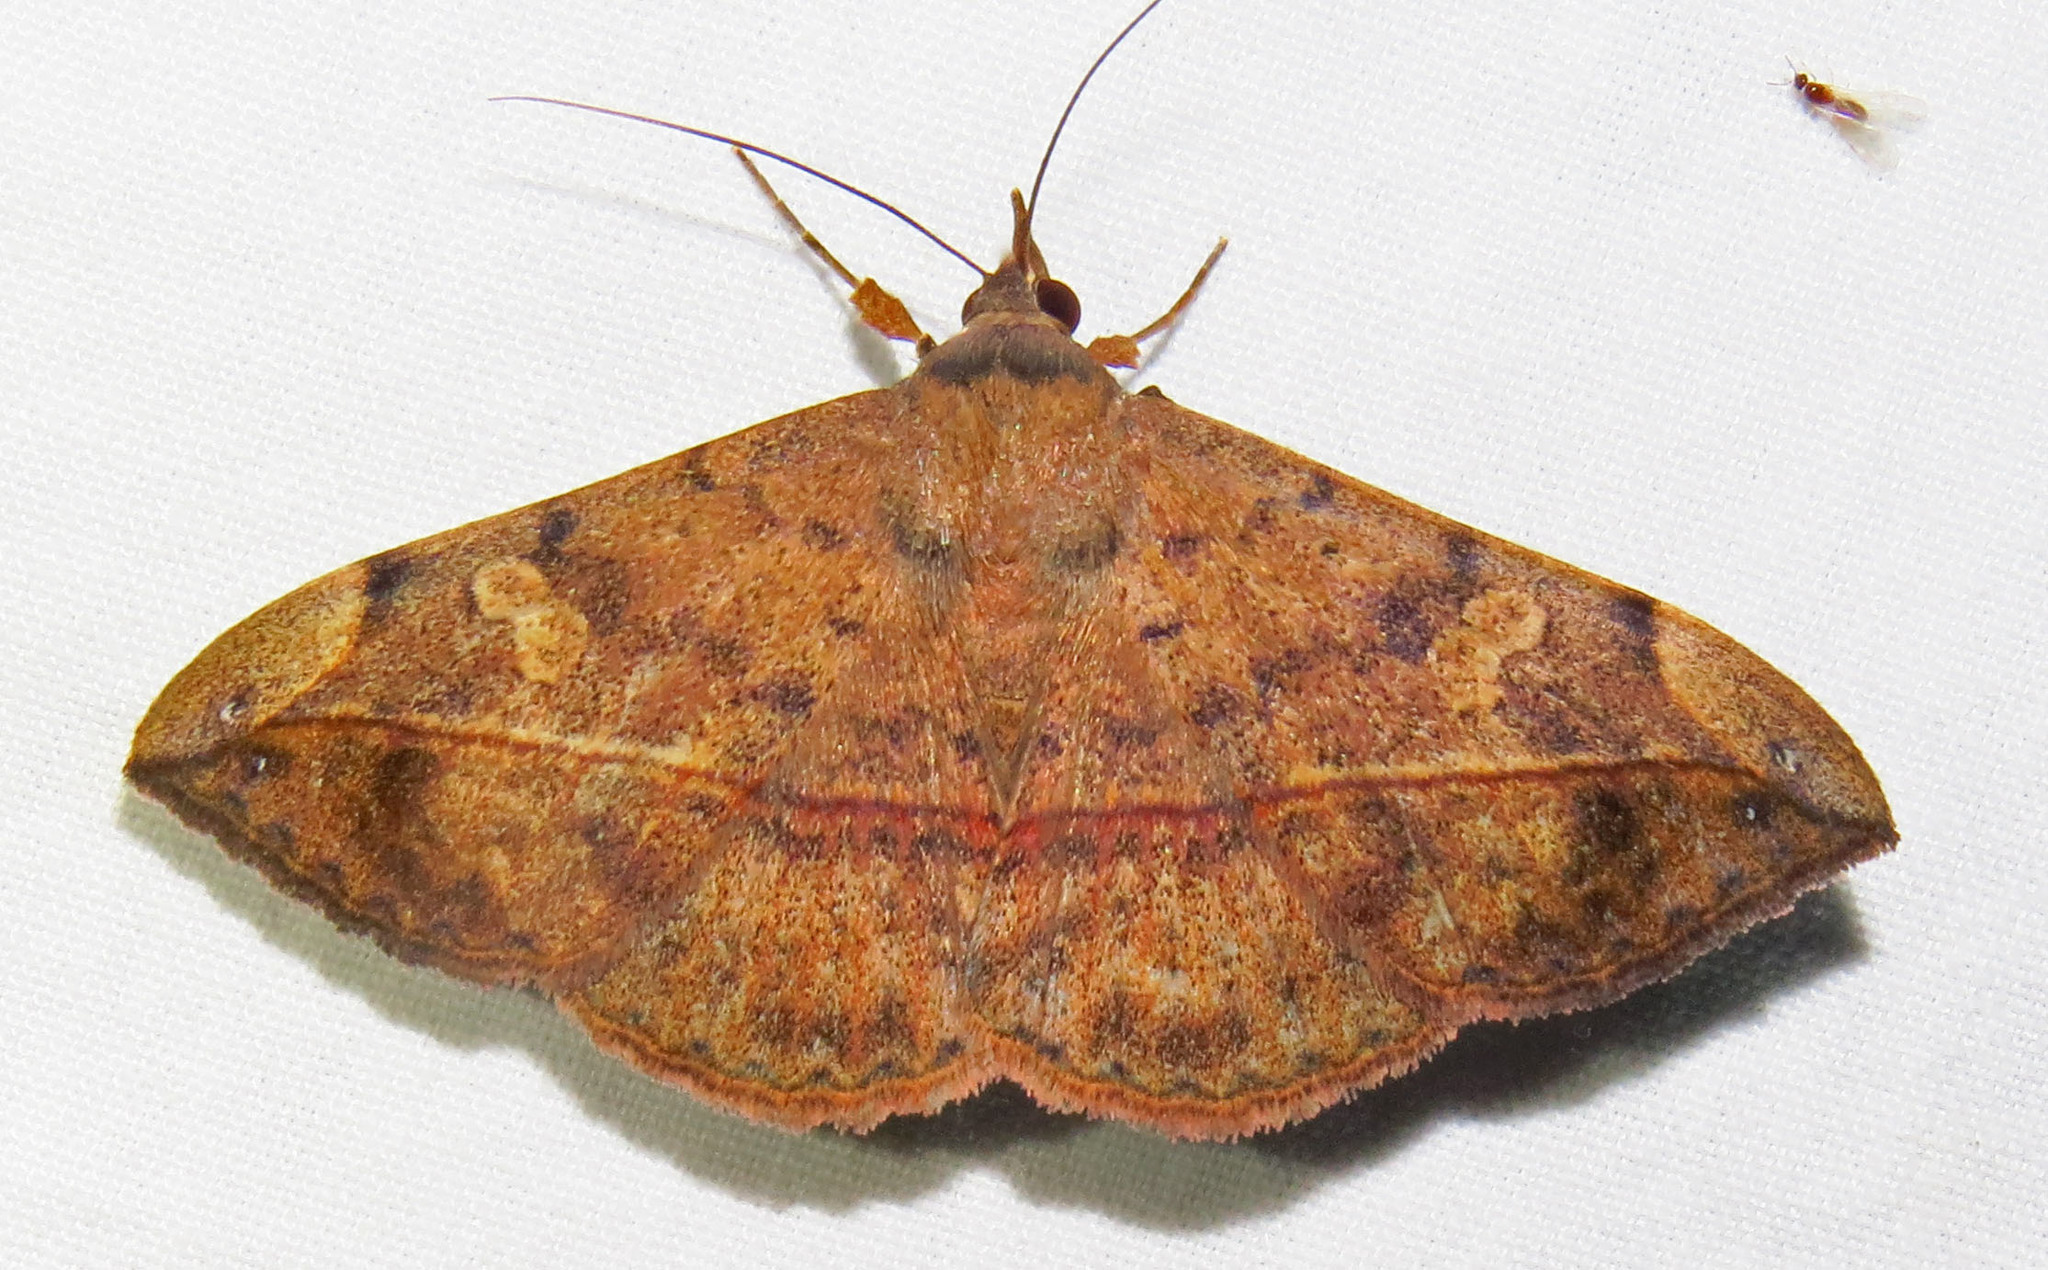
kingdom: Animalia
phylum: Arthropoda
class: Insecta
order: Lepidoptera
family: Erebidae
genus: Anticarsia
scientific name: Anticarsia gemmatalis
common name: Cutworm moth
